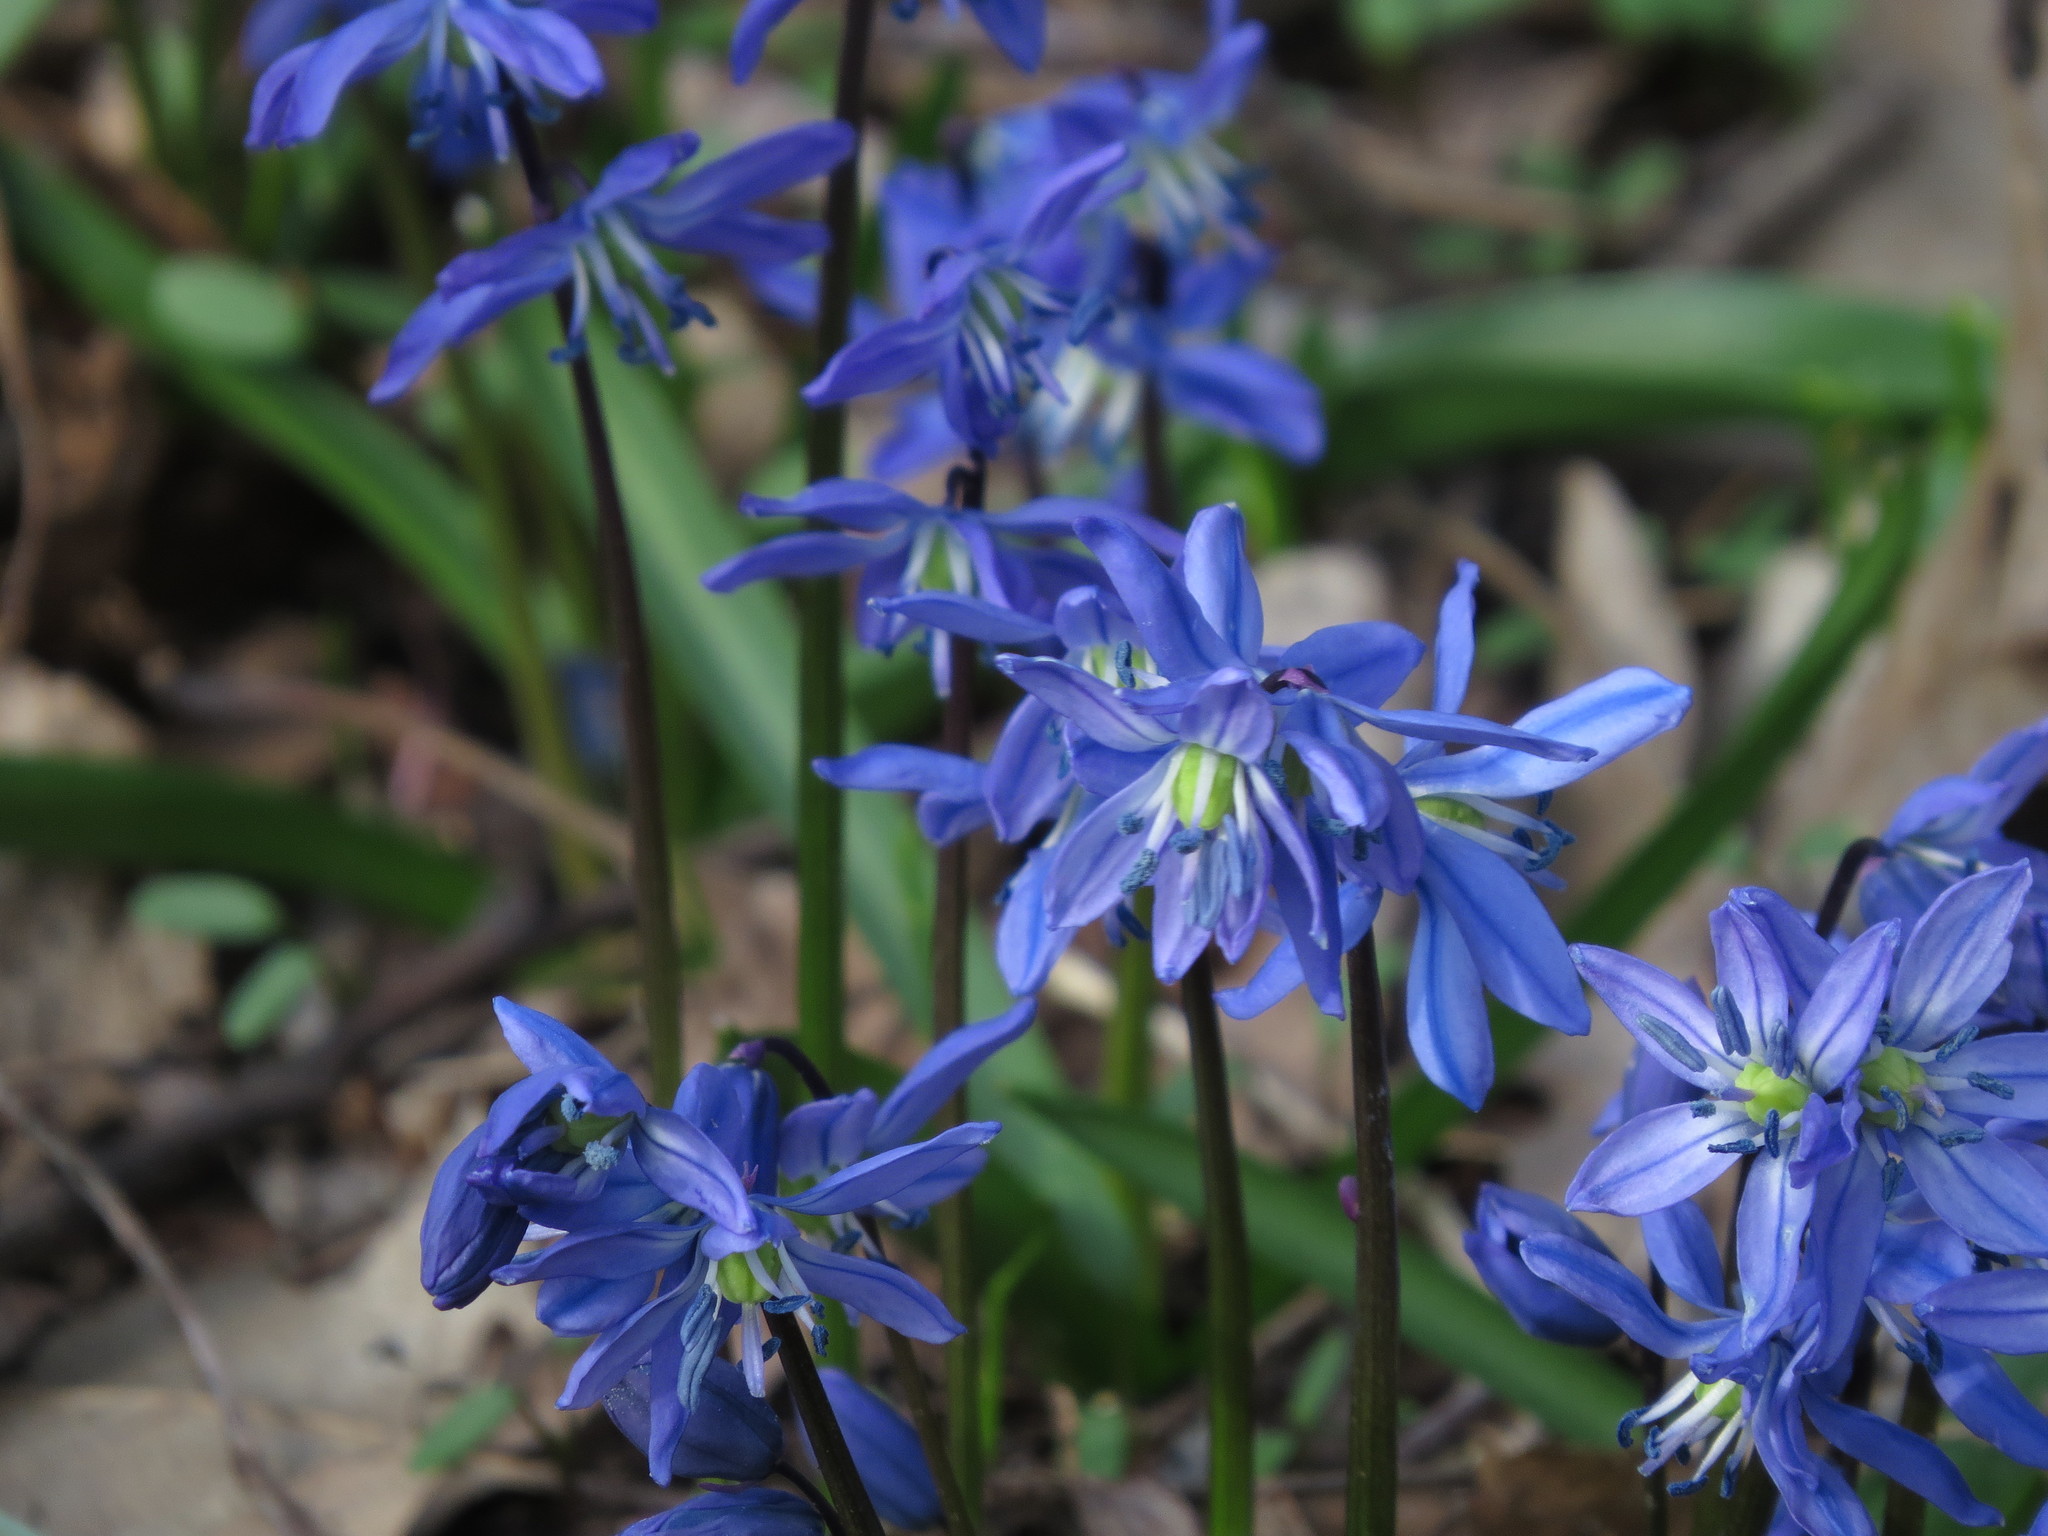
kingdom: Plantae
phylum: Tracheophyta
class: Liliopsida
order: Asparagales
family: Asparagaceae
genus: Scilla
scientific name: Scilla siberica
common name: Siberian squill
